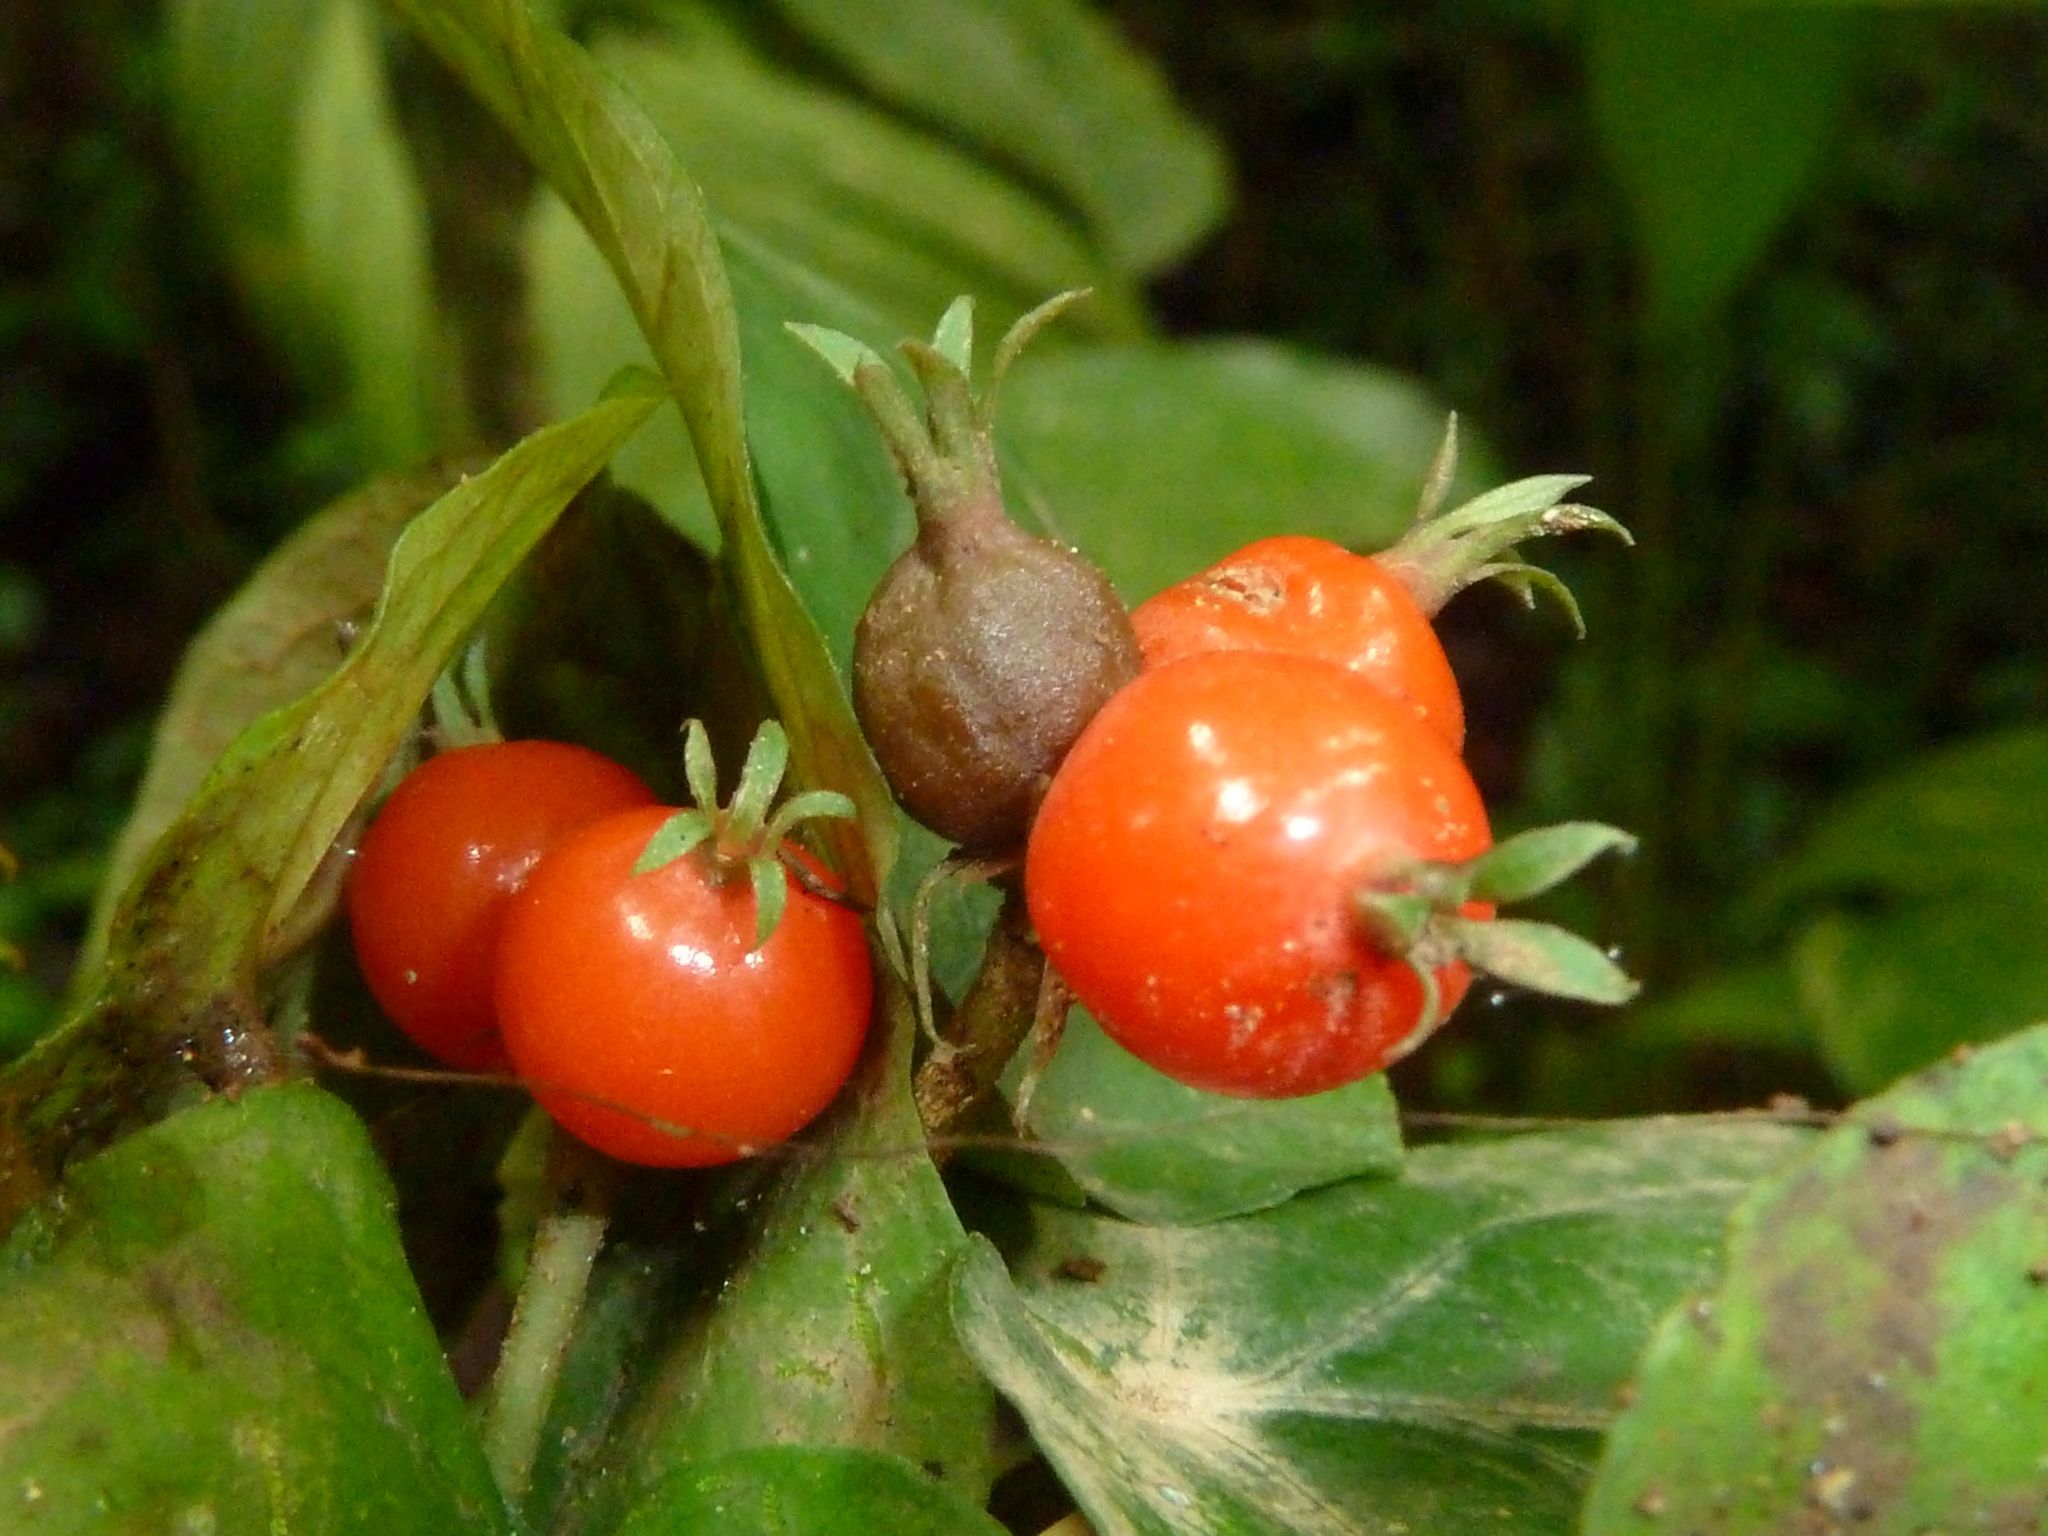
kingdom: Plantae
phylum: Tracheophyta
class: Magnoliopsida
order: Gentianales
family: Rubiaceae
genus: Geophila
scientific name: Geophila repens
